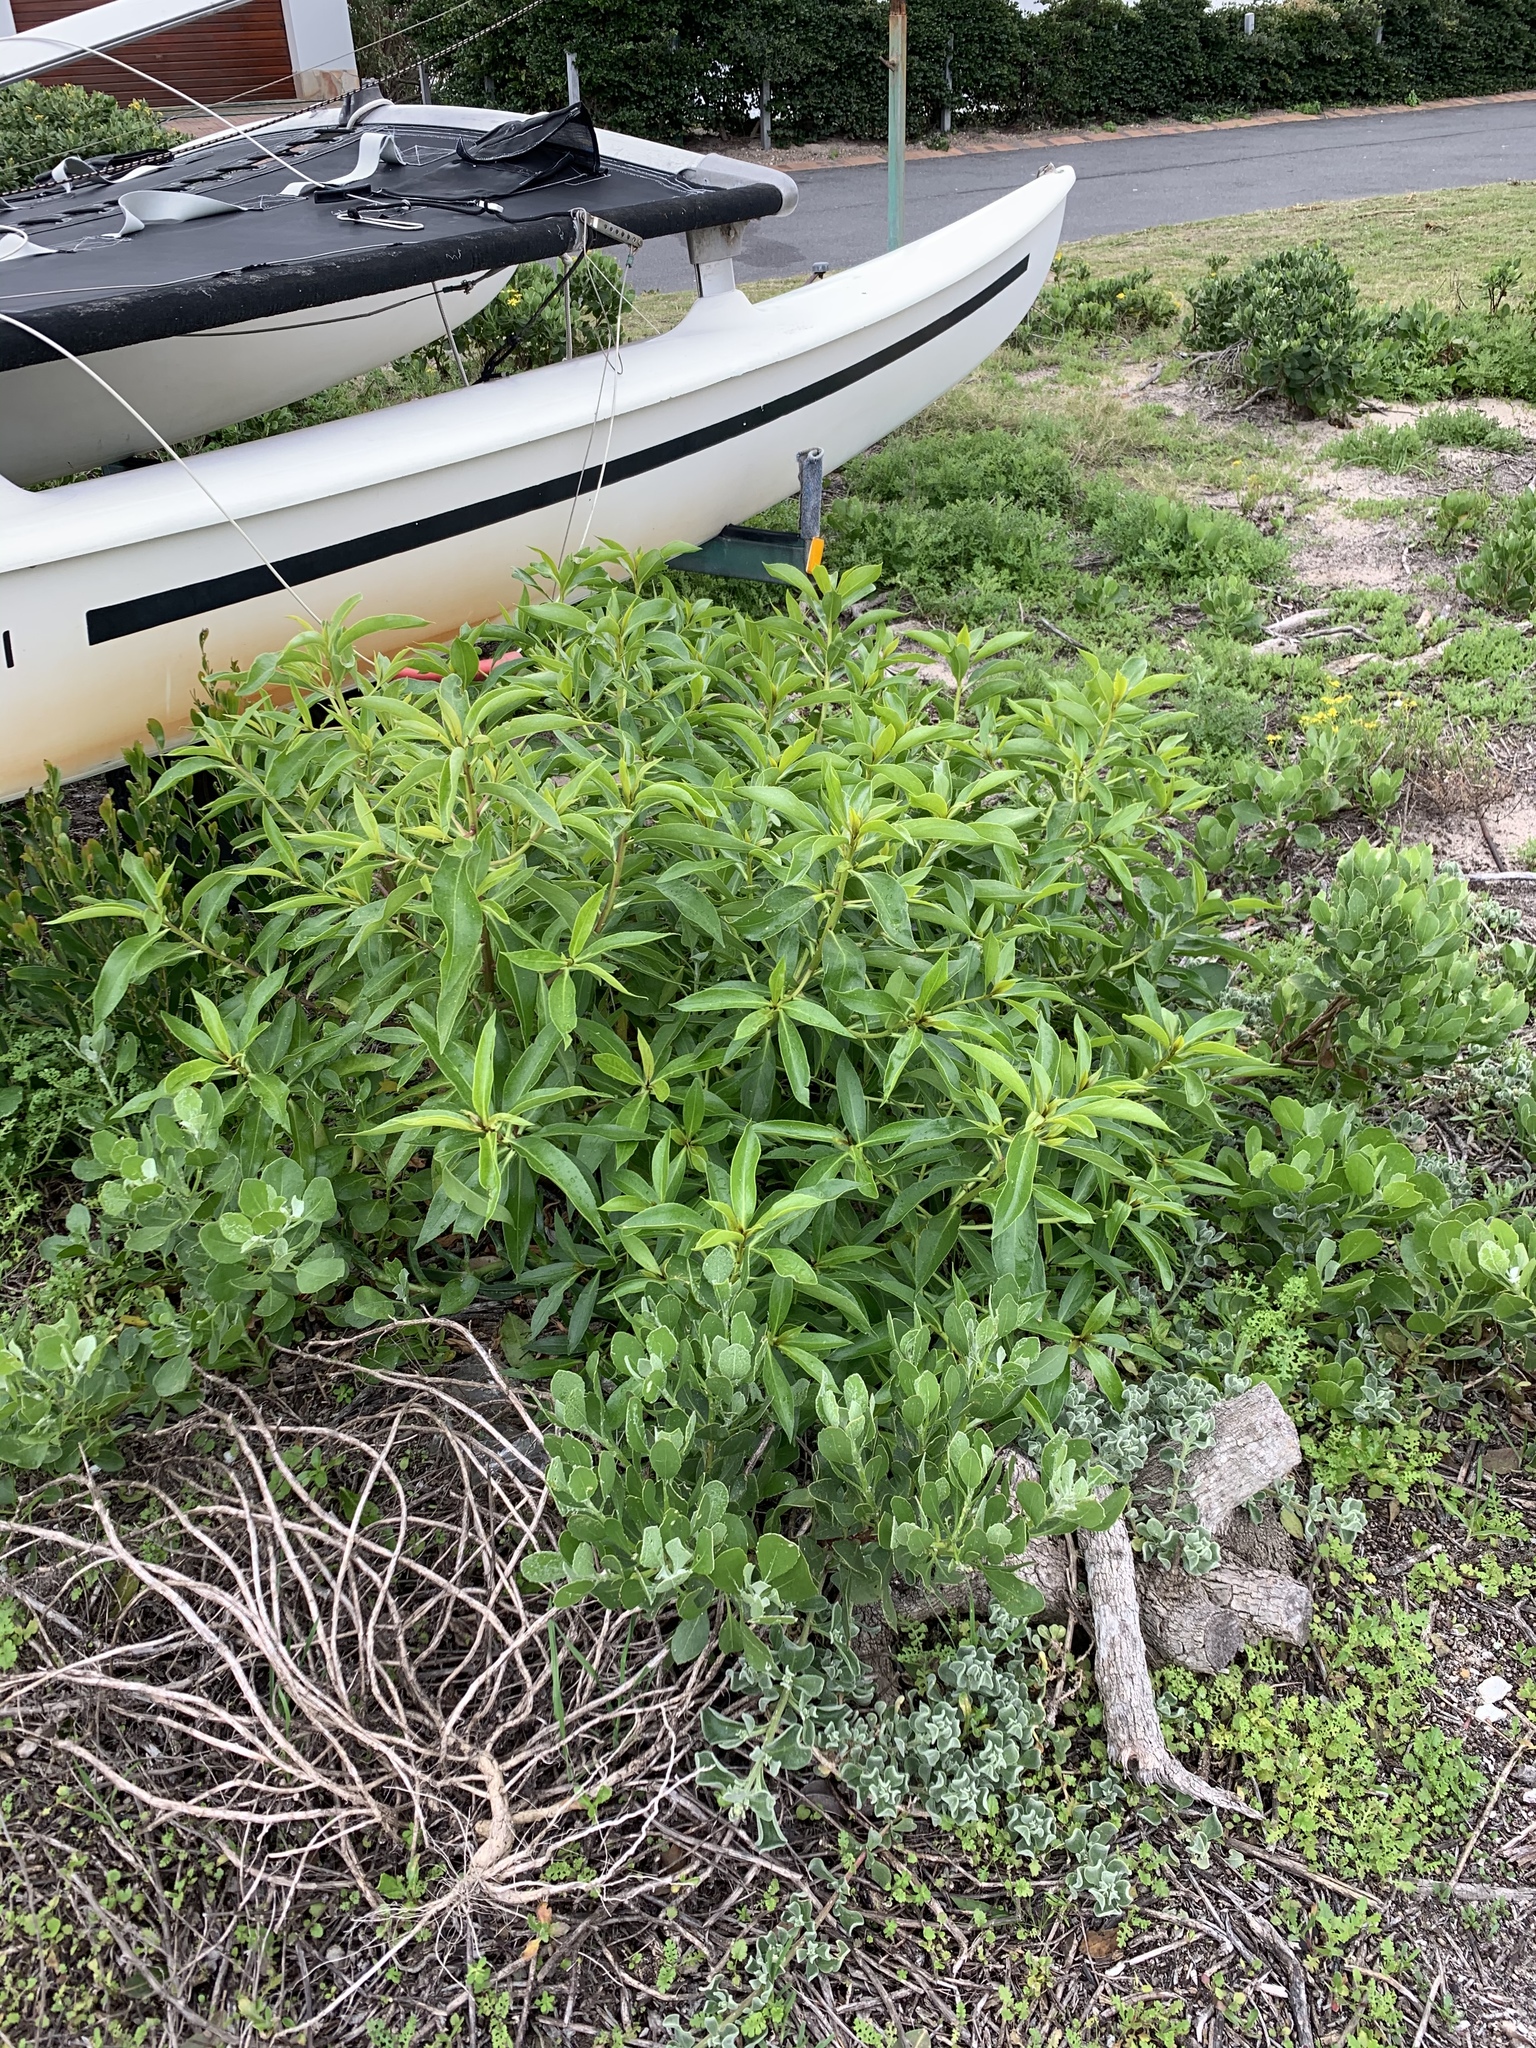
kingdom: Plantae
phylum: Tracheophyta
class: Magnoliopsida
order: Lamiales
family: Scrophulariaceae
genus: Myoporum
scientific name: Myoporum laetum
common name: Ngaio tree
